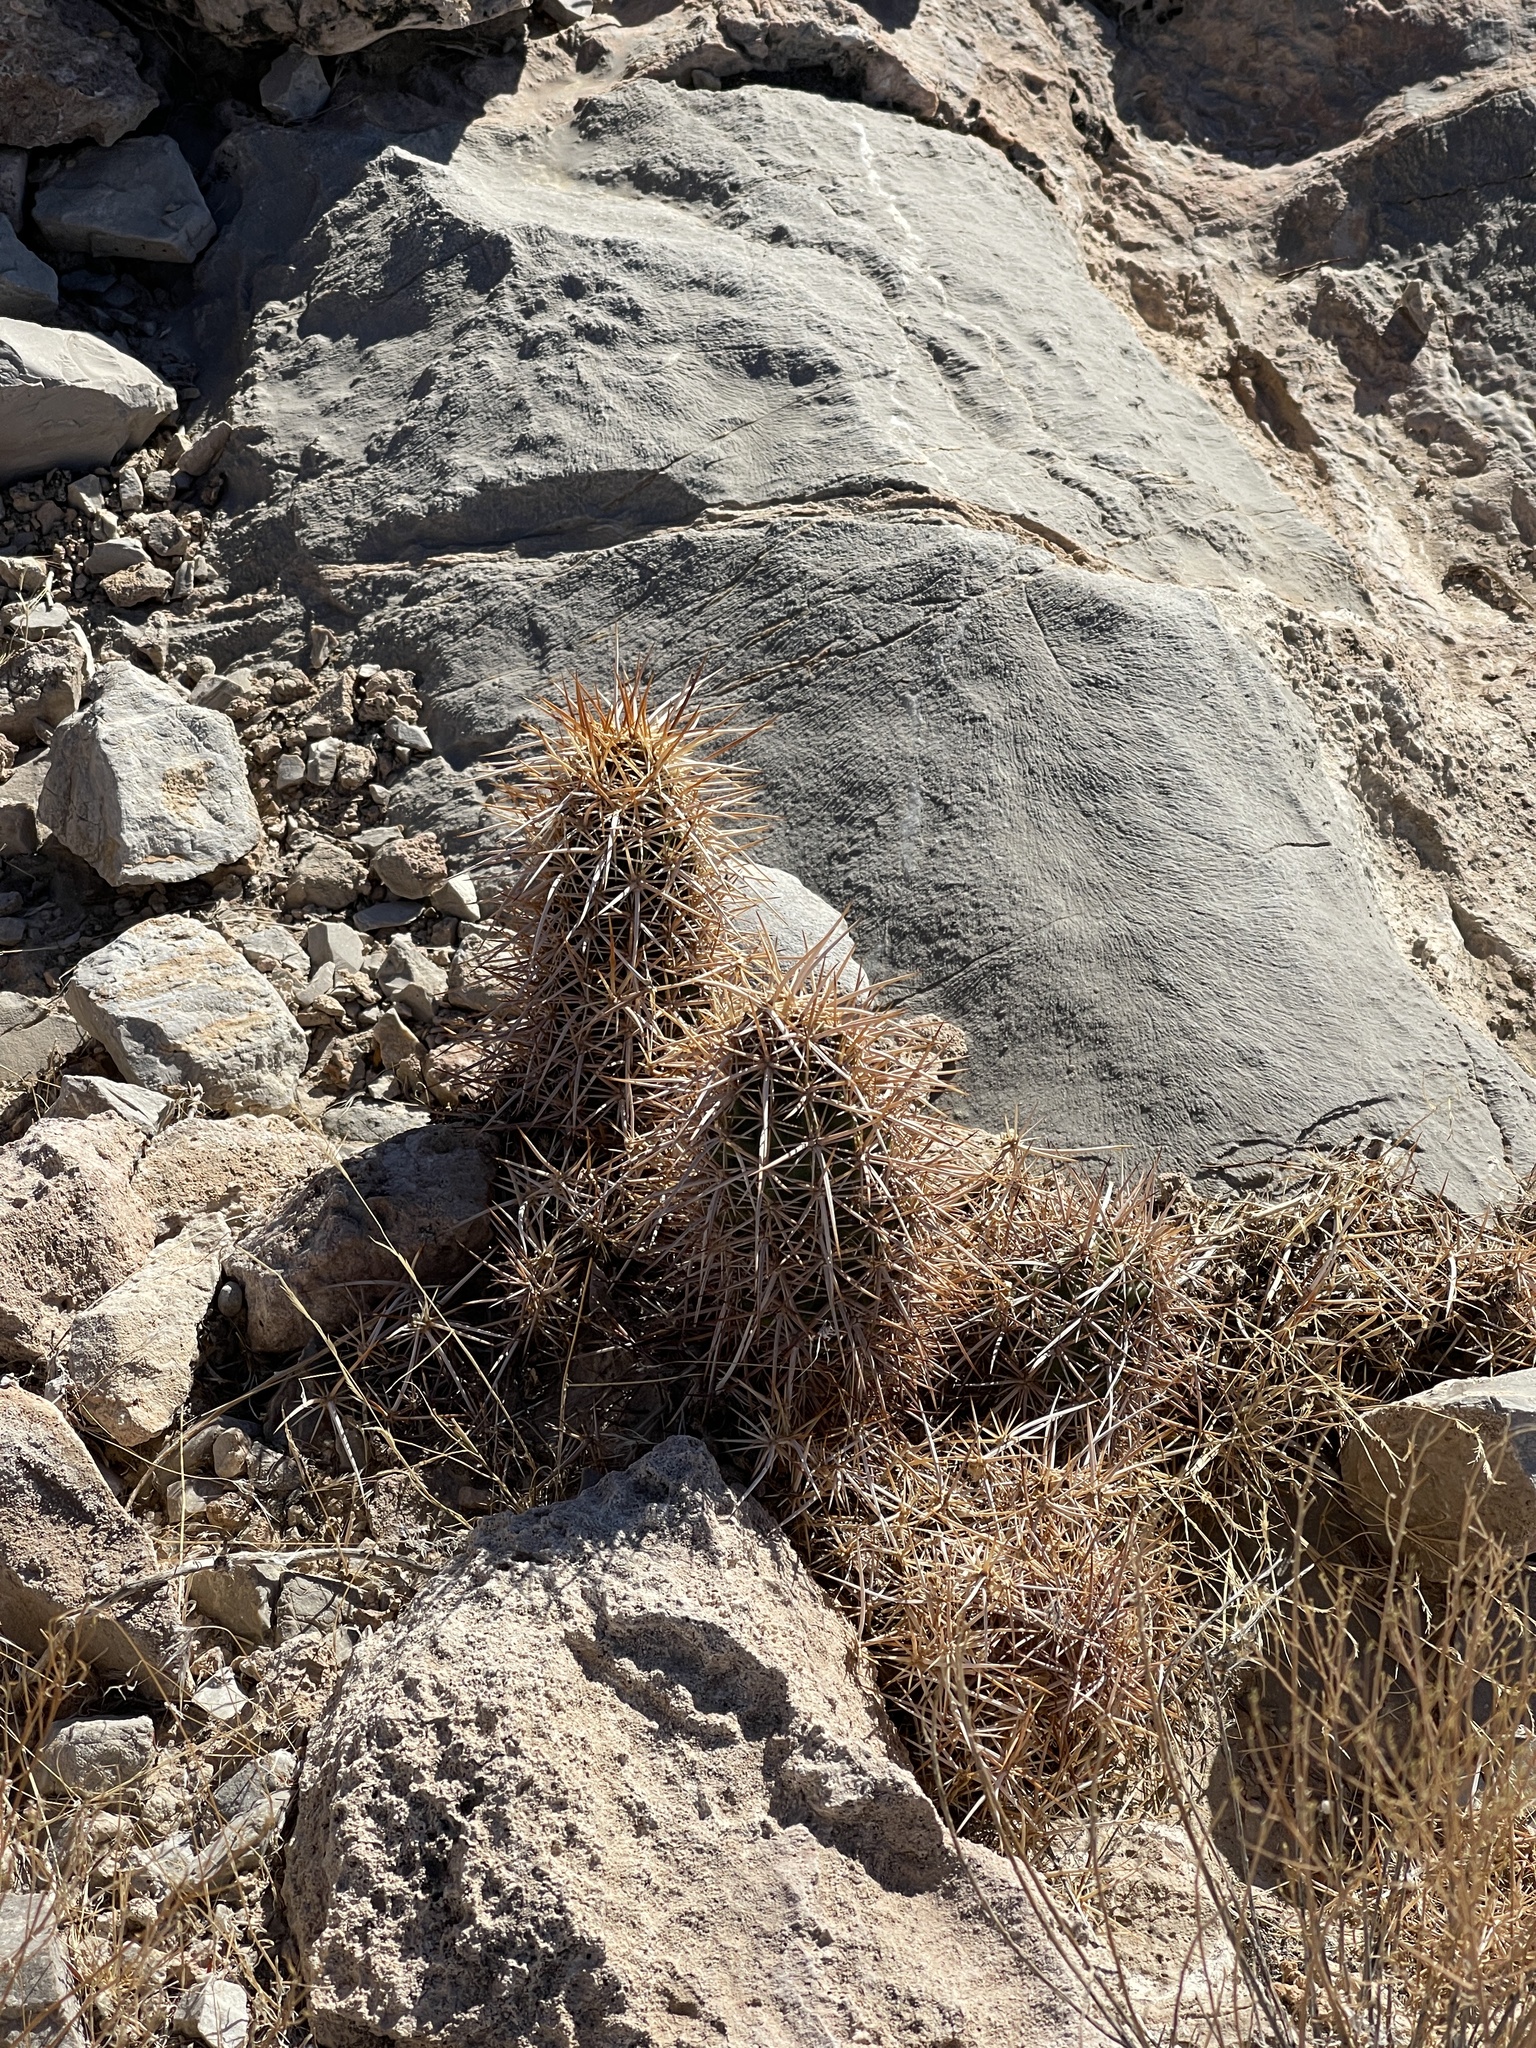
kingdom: Plantae
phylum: Tracheophyta
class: Magnoliopsida
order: Caryophyllales
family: Cactaceae
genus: Echinocereus
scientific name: Echinocereus engelmannii
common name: Engelmann's hedgehog cactus
